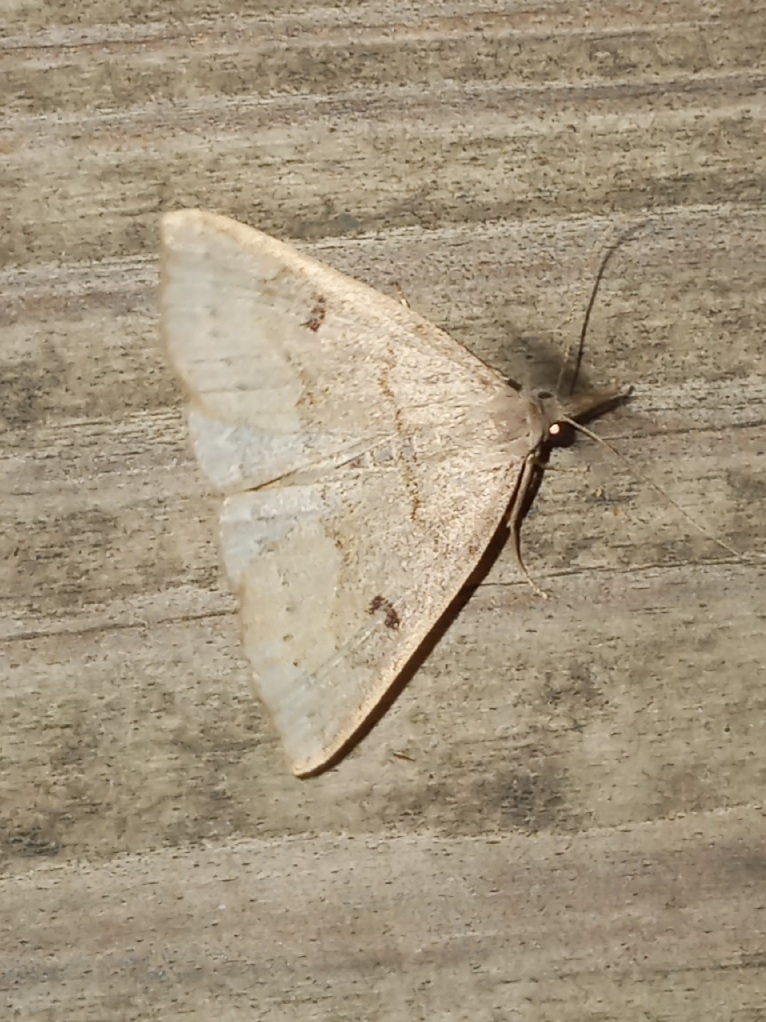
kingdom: Animalia
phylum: Arthropoda
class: Insecta
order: Lepidoptera
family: Erebidae
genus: Macrochilo
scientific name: Macrochilo morbidalis
